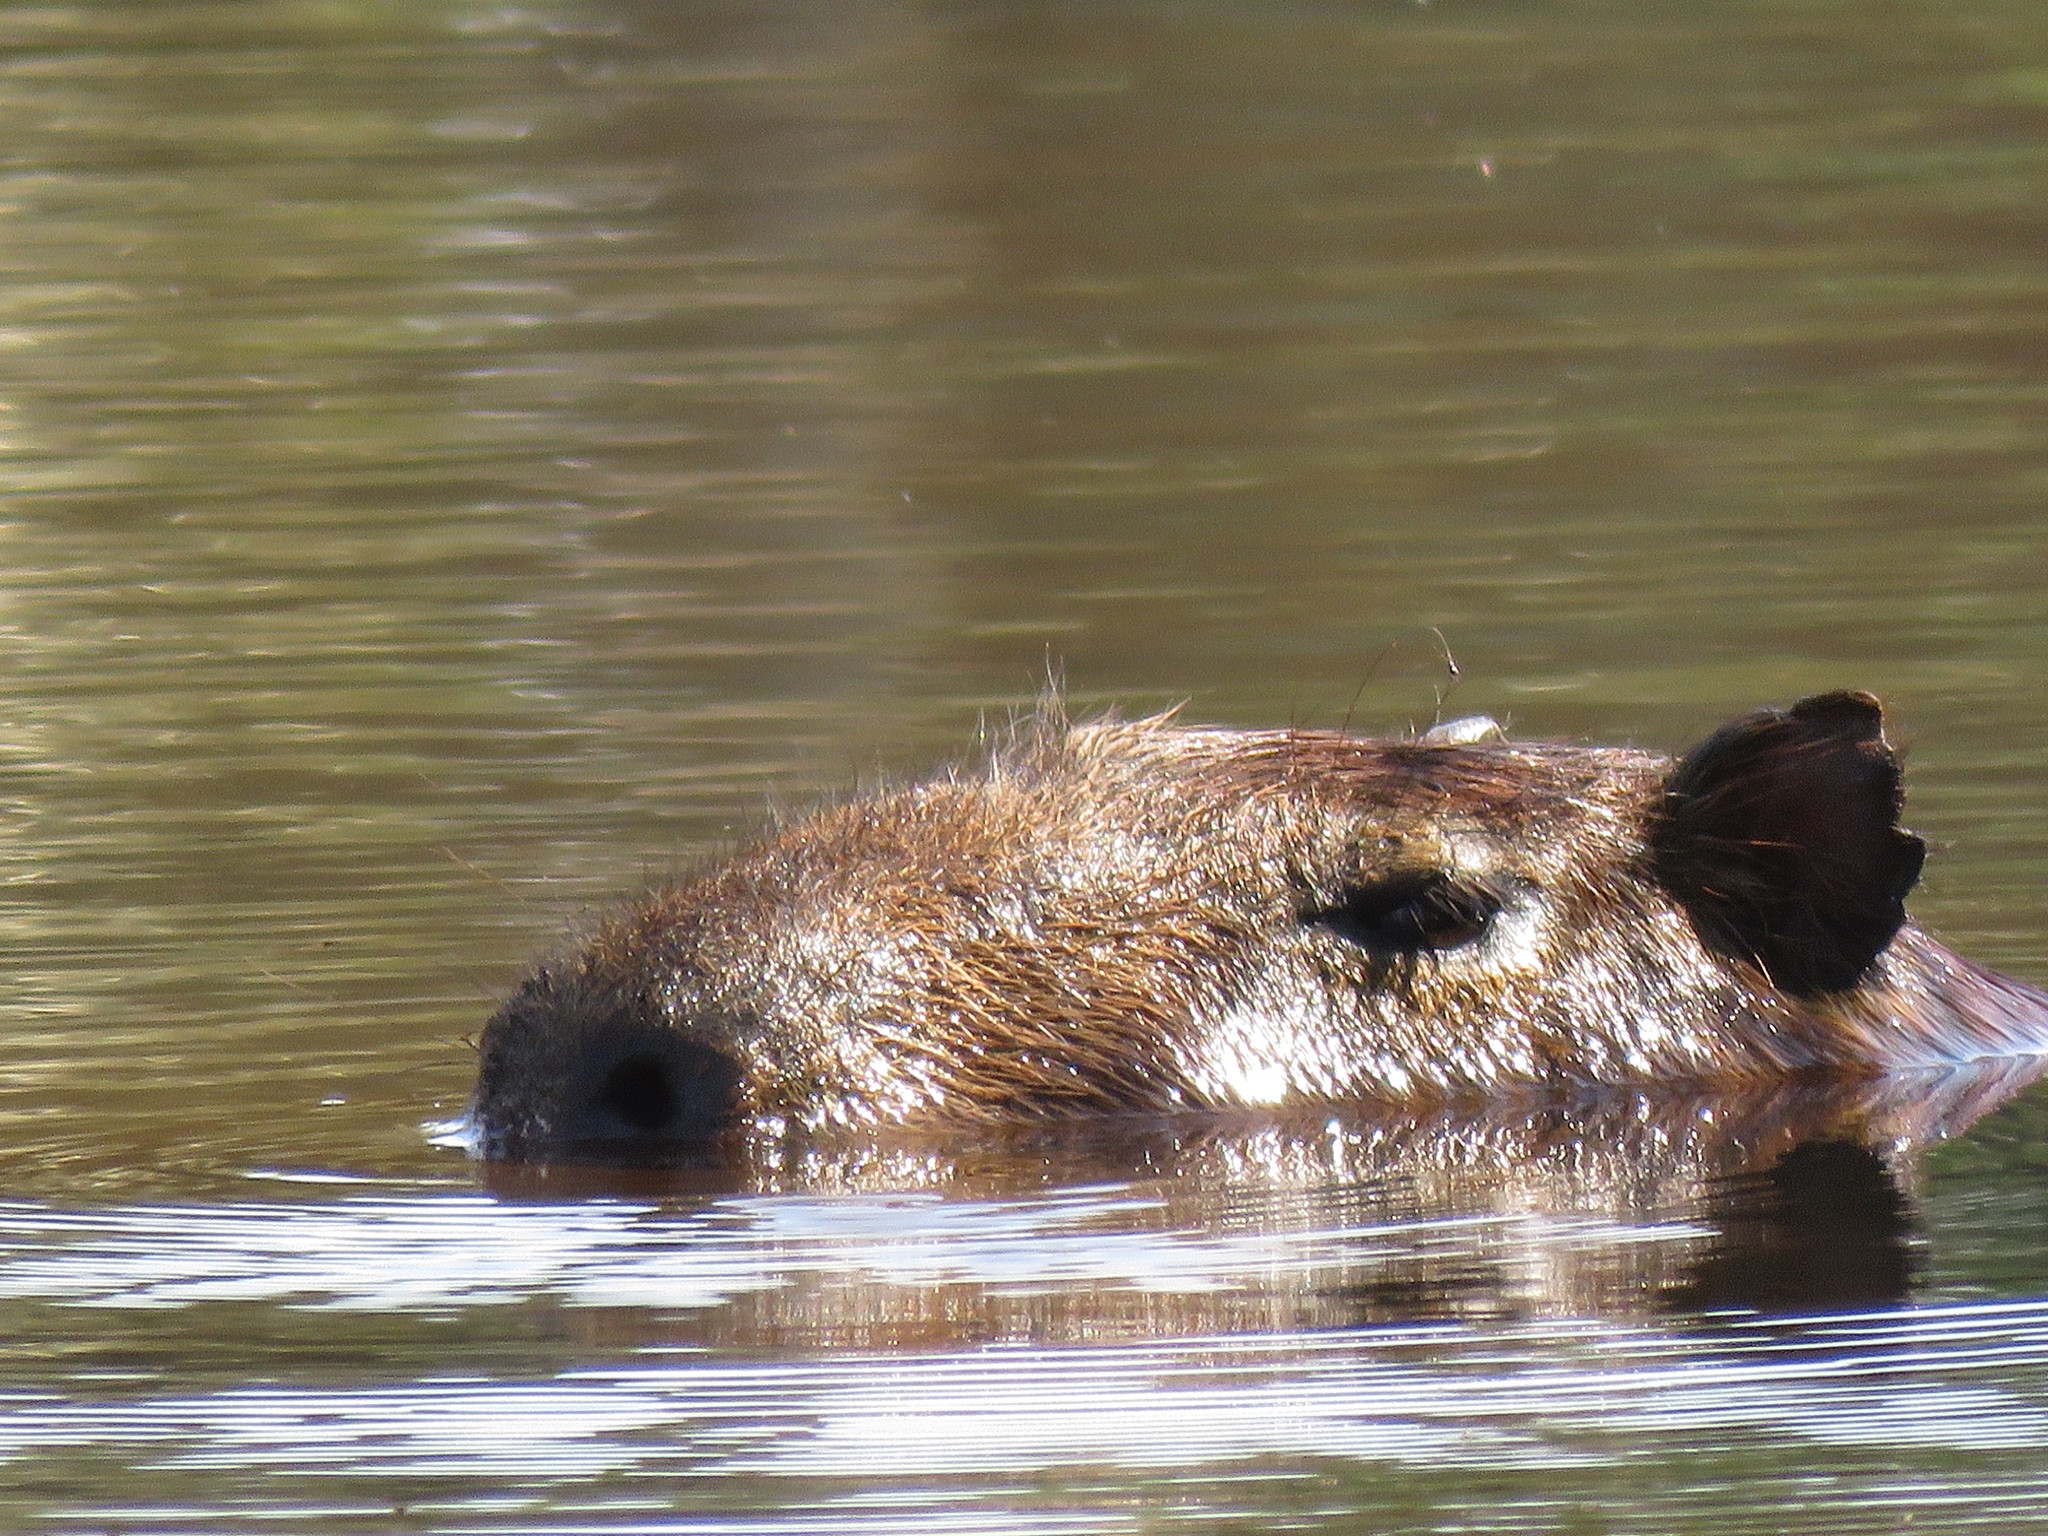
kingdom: Animalia
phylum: Chordata
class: Mammalia
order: Rodentia
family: Caviidae
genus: Hydrochoerus
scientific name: Hydrochoerus hydrochaeris
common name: Capybara
